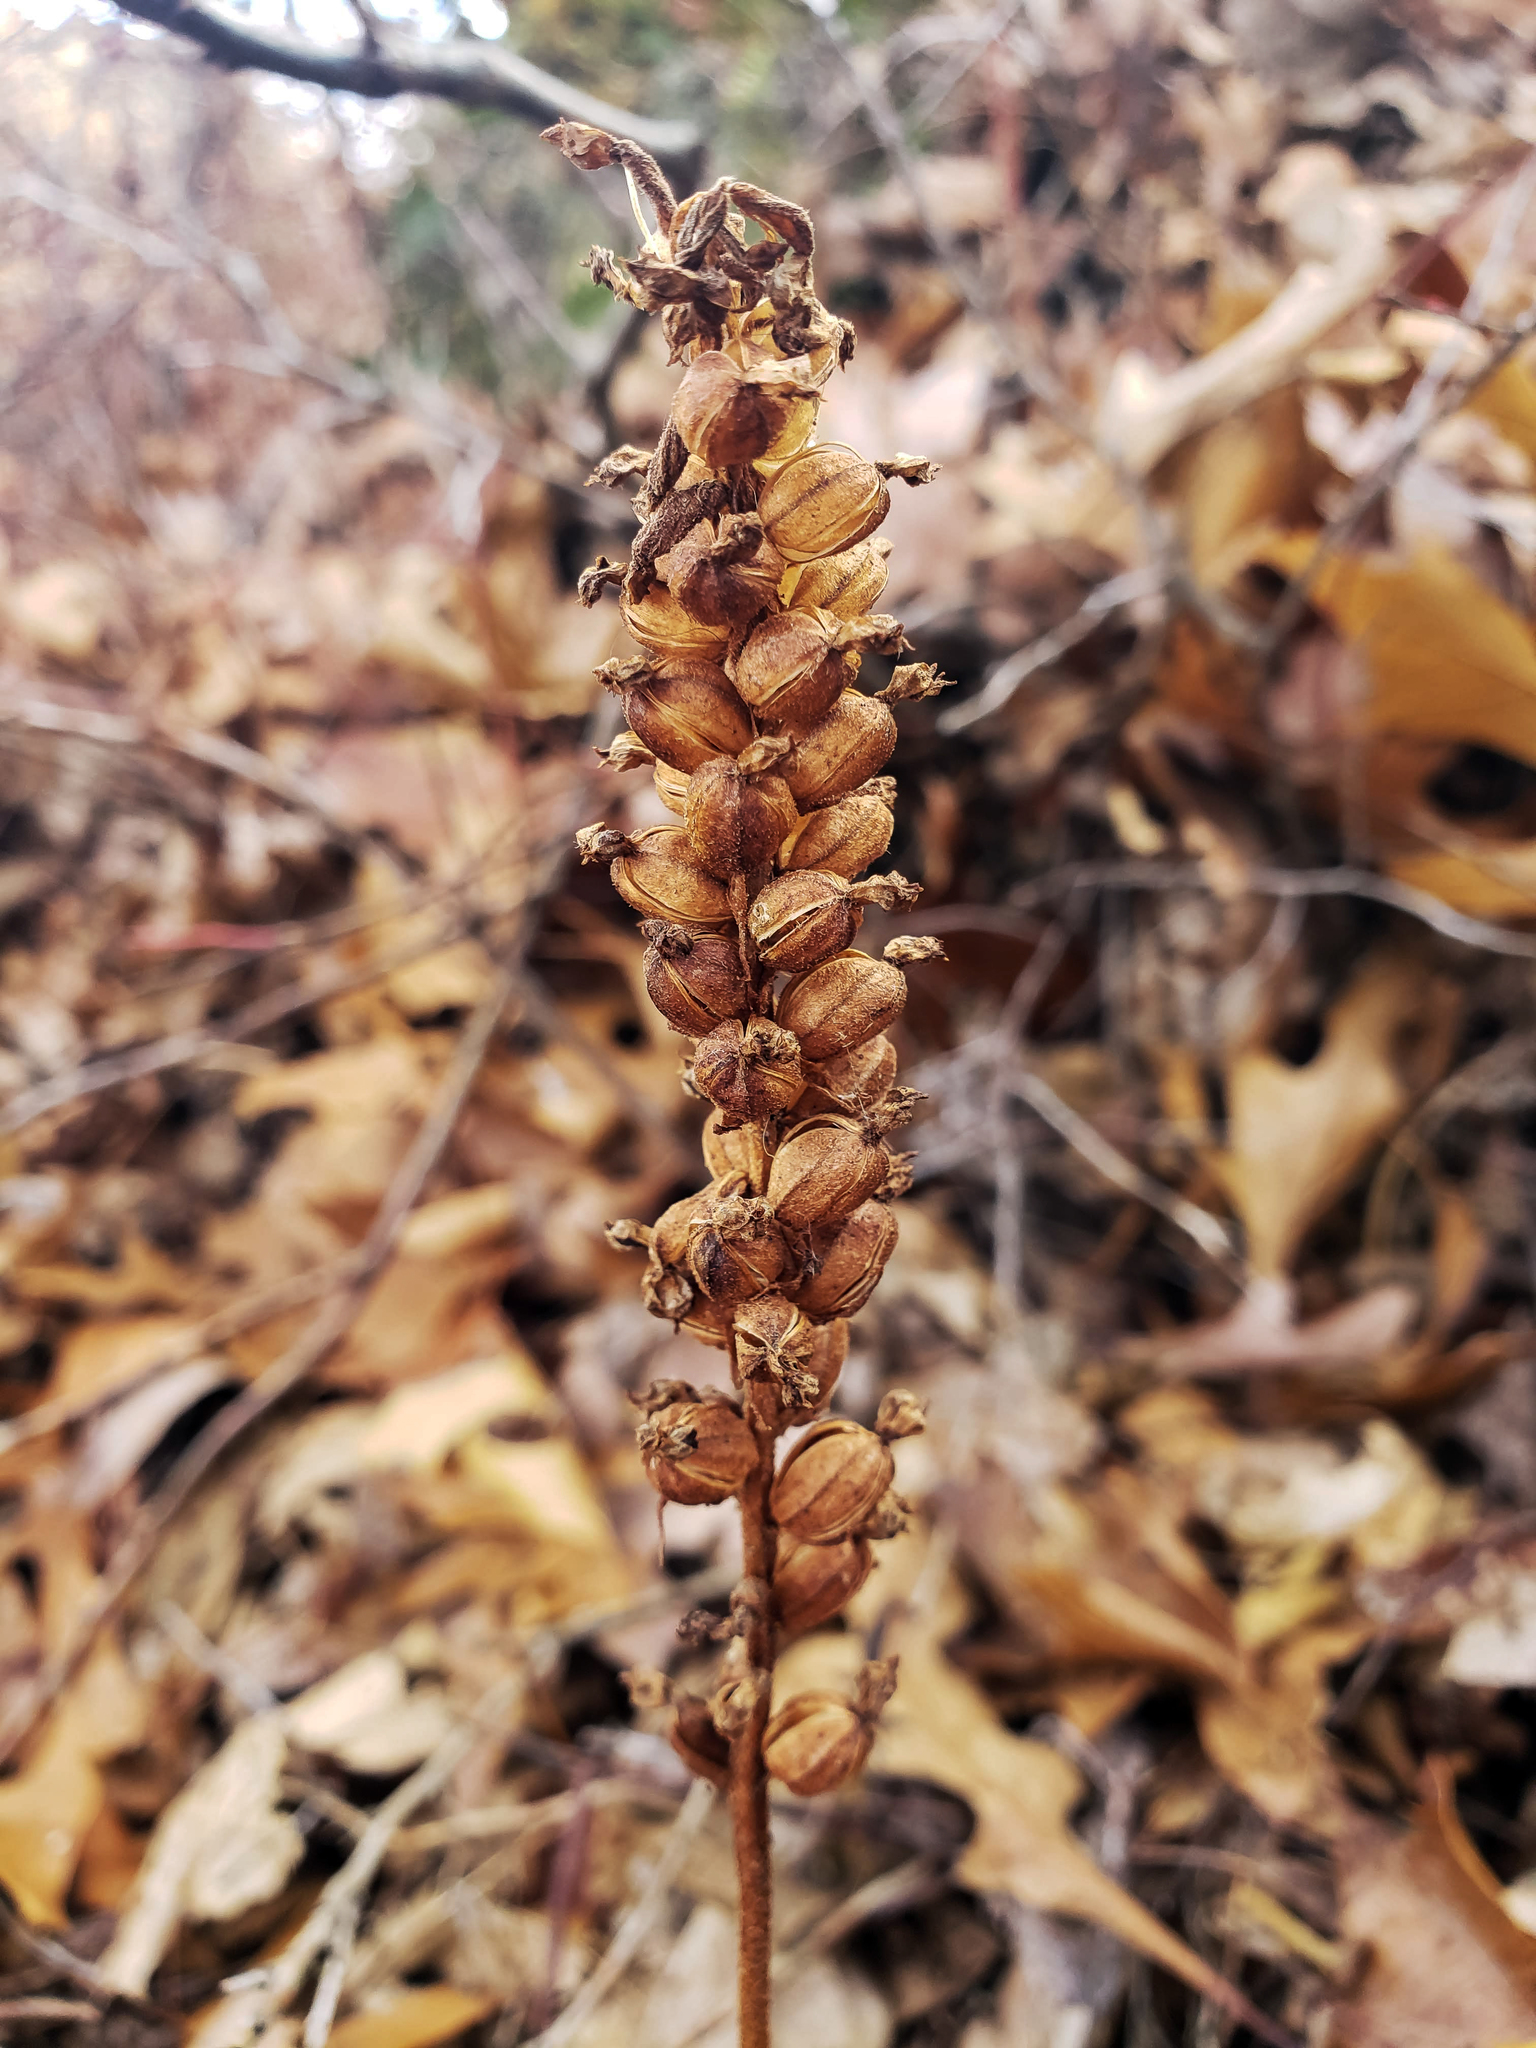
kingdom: Plantae
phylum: Tracheophyta
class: Liliopsida
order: Asparagales
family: Orchidaceae
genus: Goodyera
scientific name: Goodyera pubescens
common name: Downy rattlesnake-plantain
